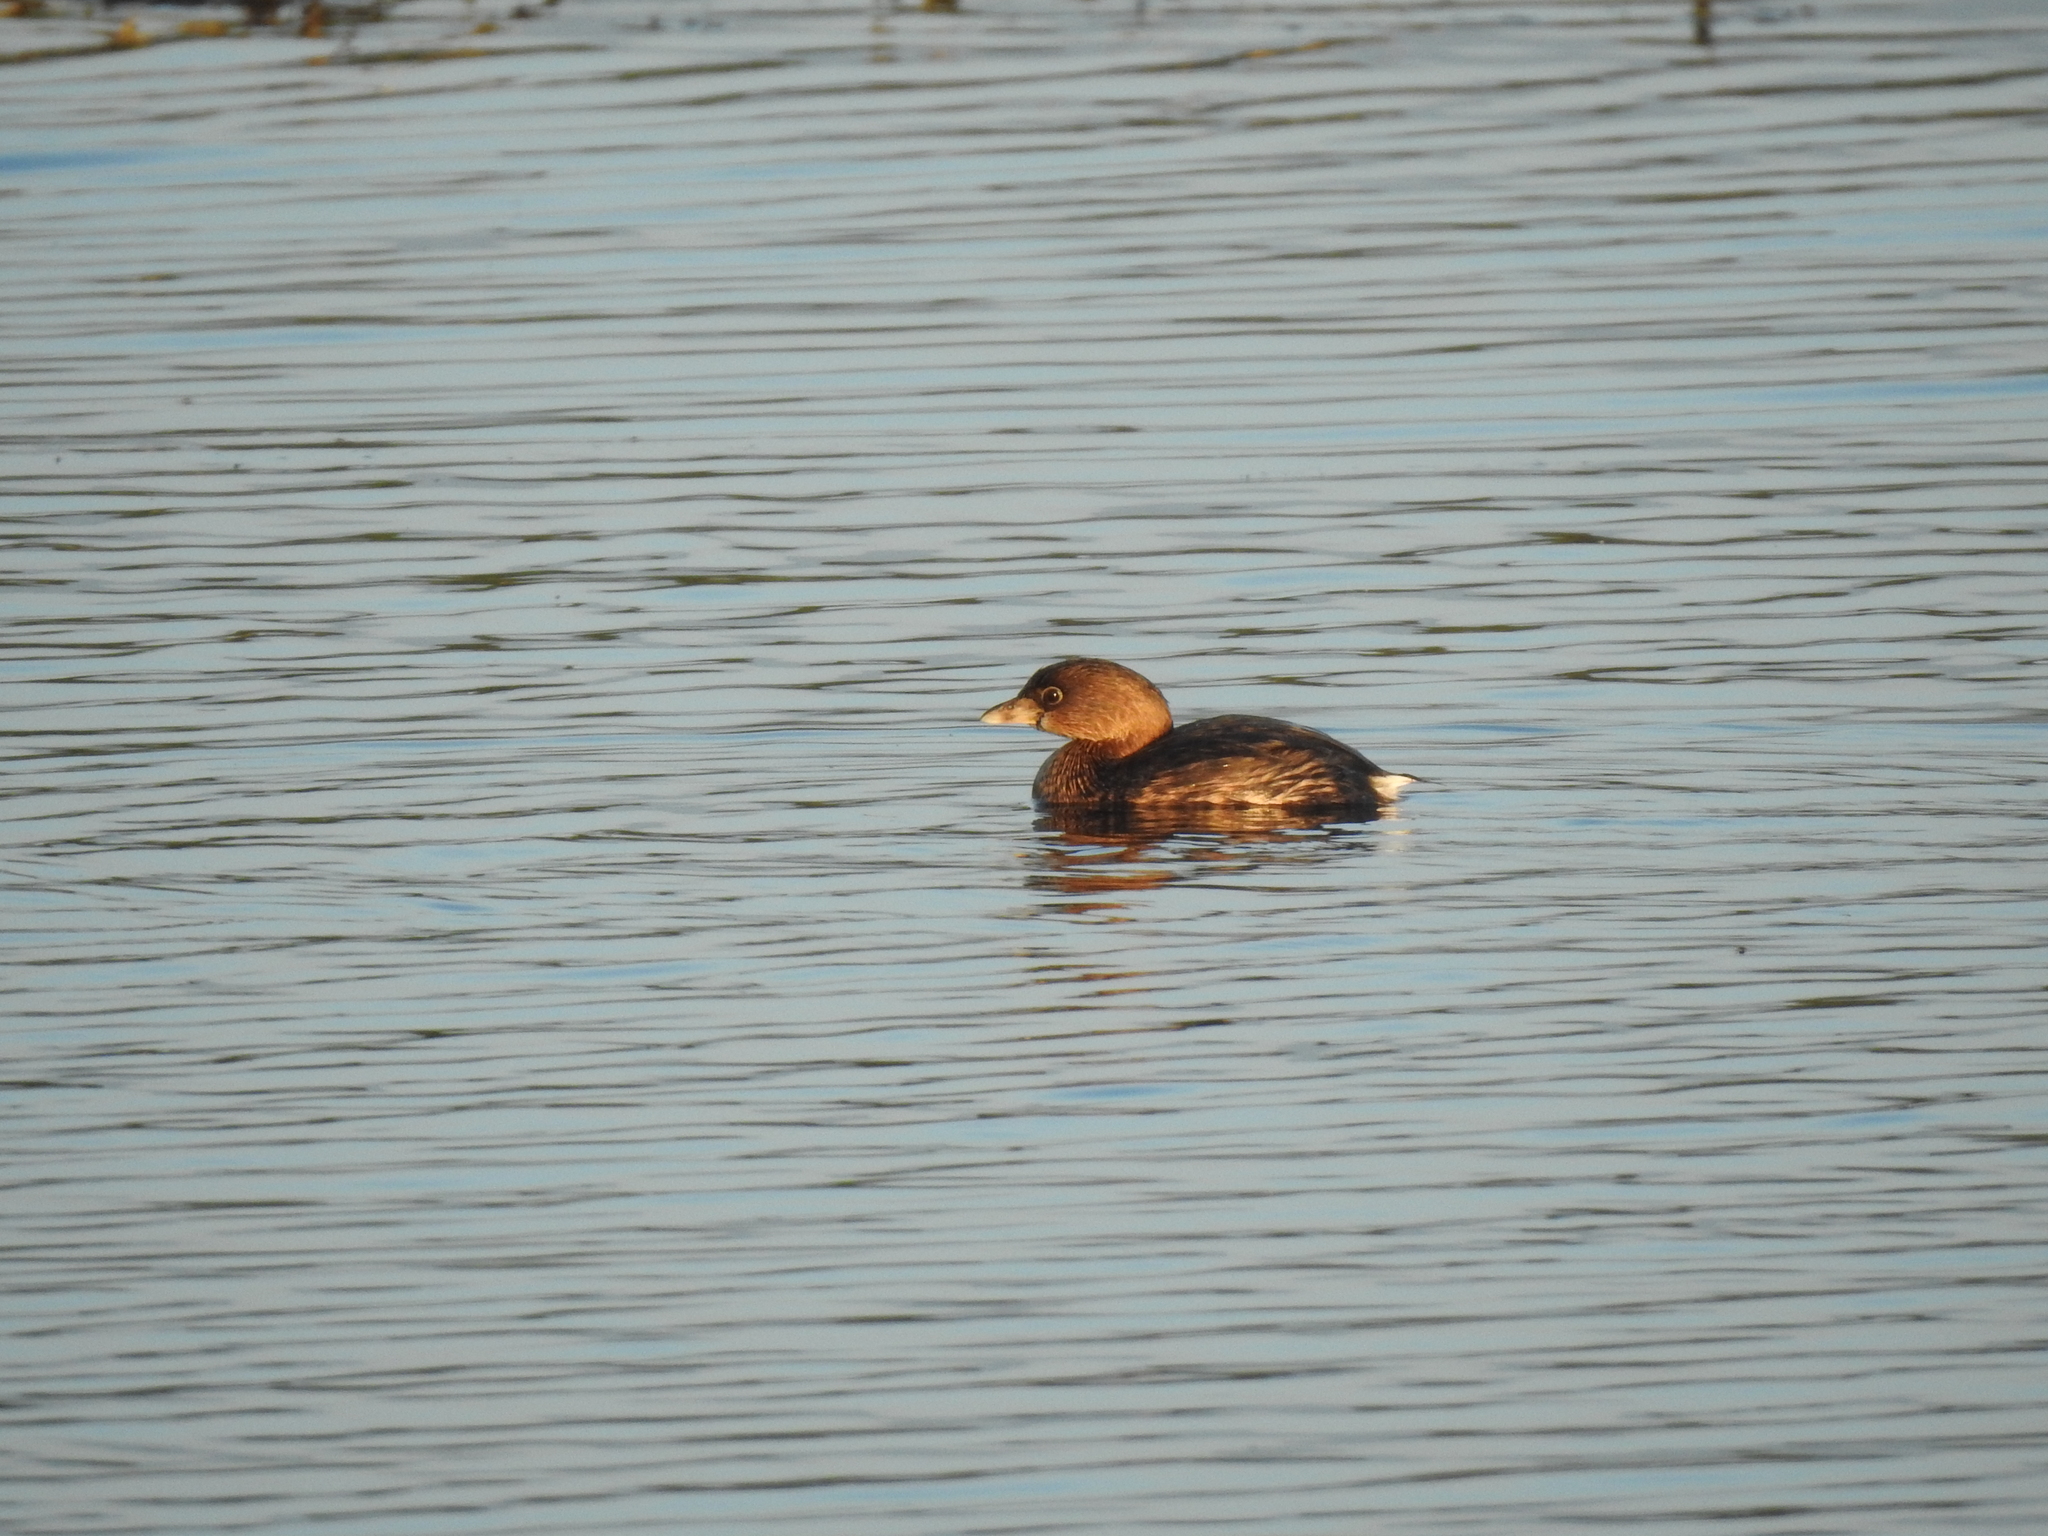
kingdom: Animalia
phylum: Chordata
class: Aves
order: Podicipediformes
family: Podicipedidae
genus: Podilymbus
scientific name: Podilymbus podiceps
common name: Pied-billed grebe
